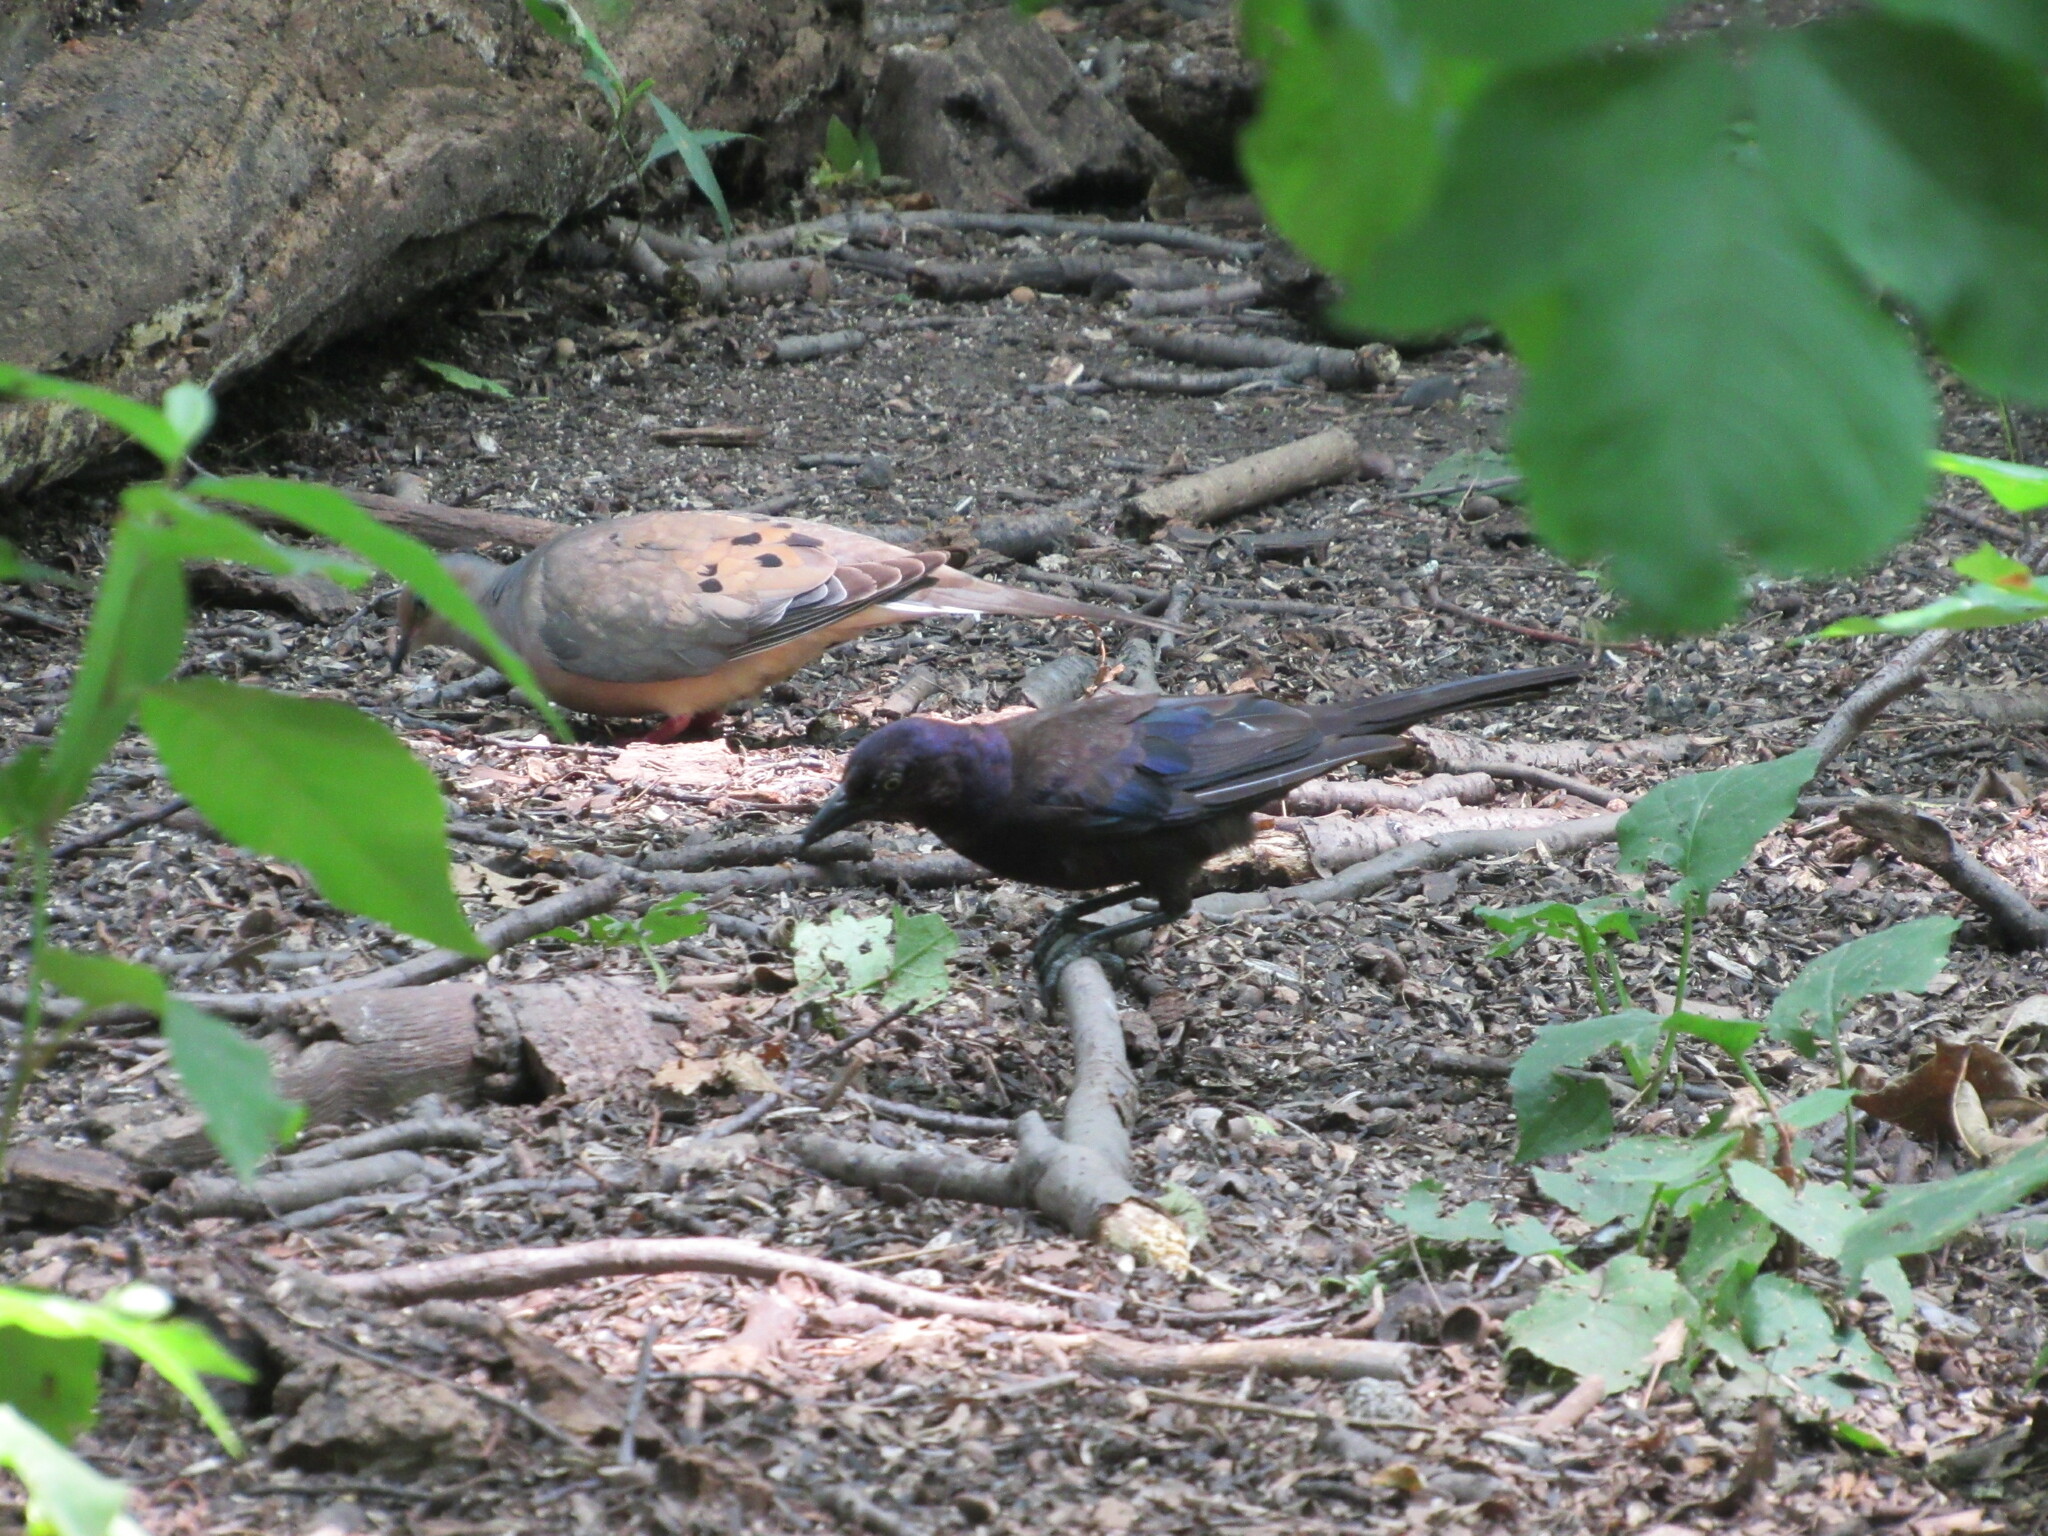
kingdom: Animalia
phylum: Chordata
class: Aves
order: Columbiformes
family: Columbidae
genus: Zenaida
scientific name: Zenaida macroura
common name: Mourning dove
